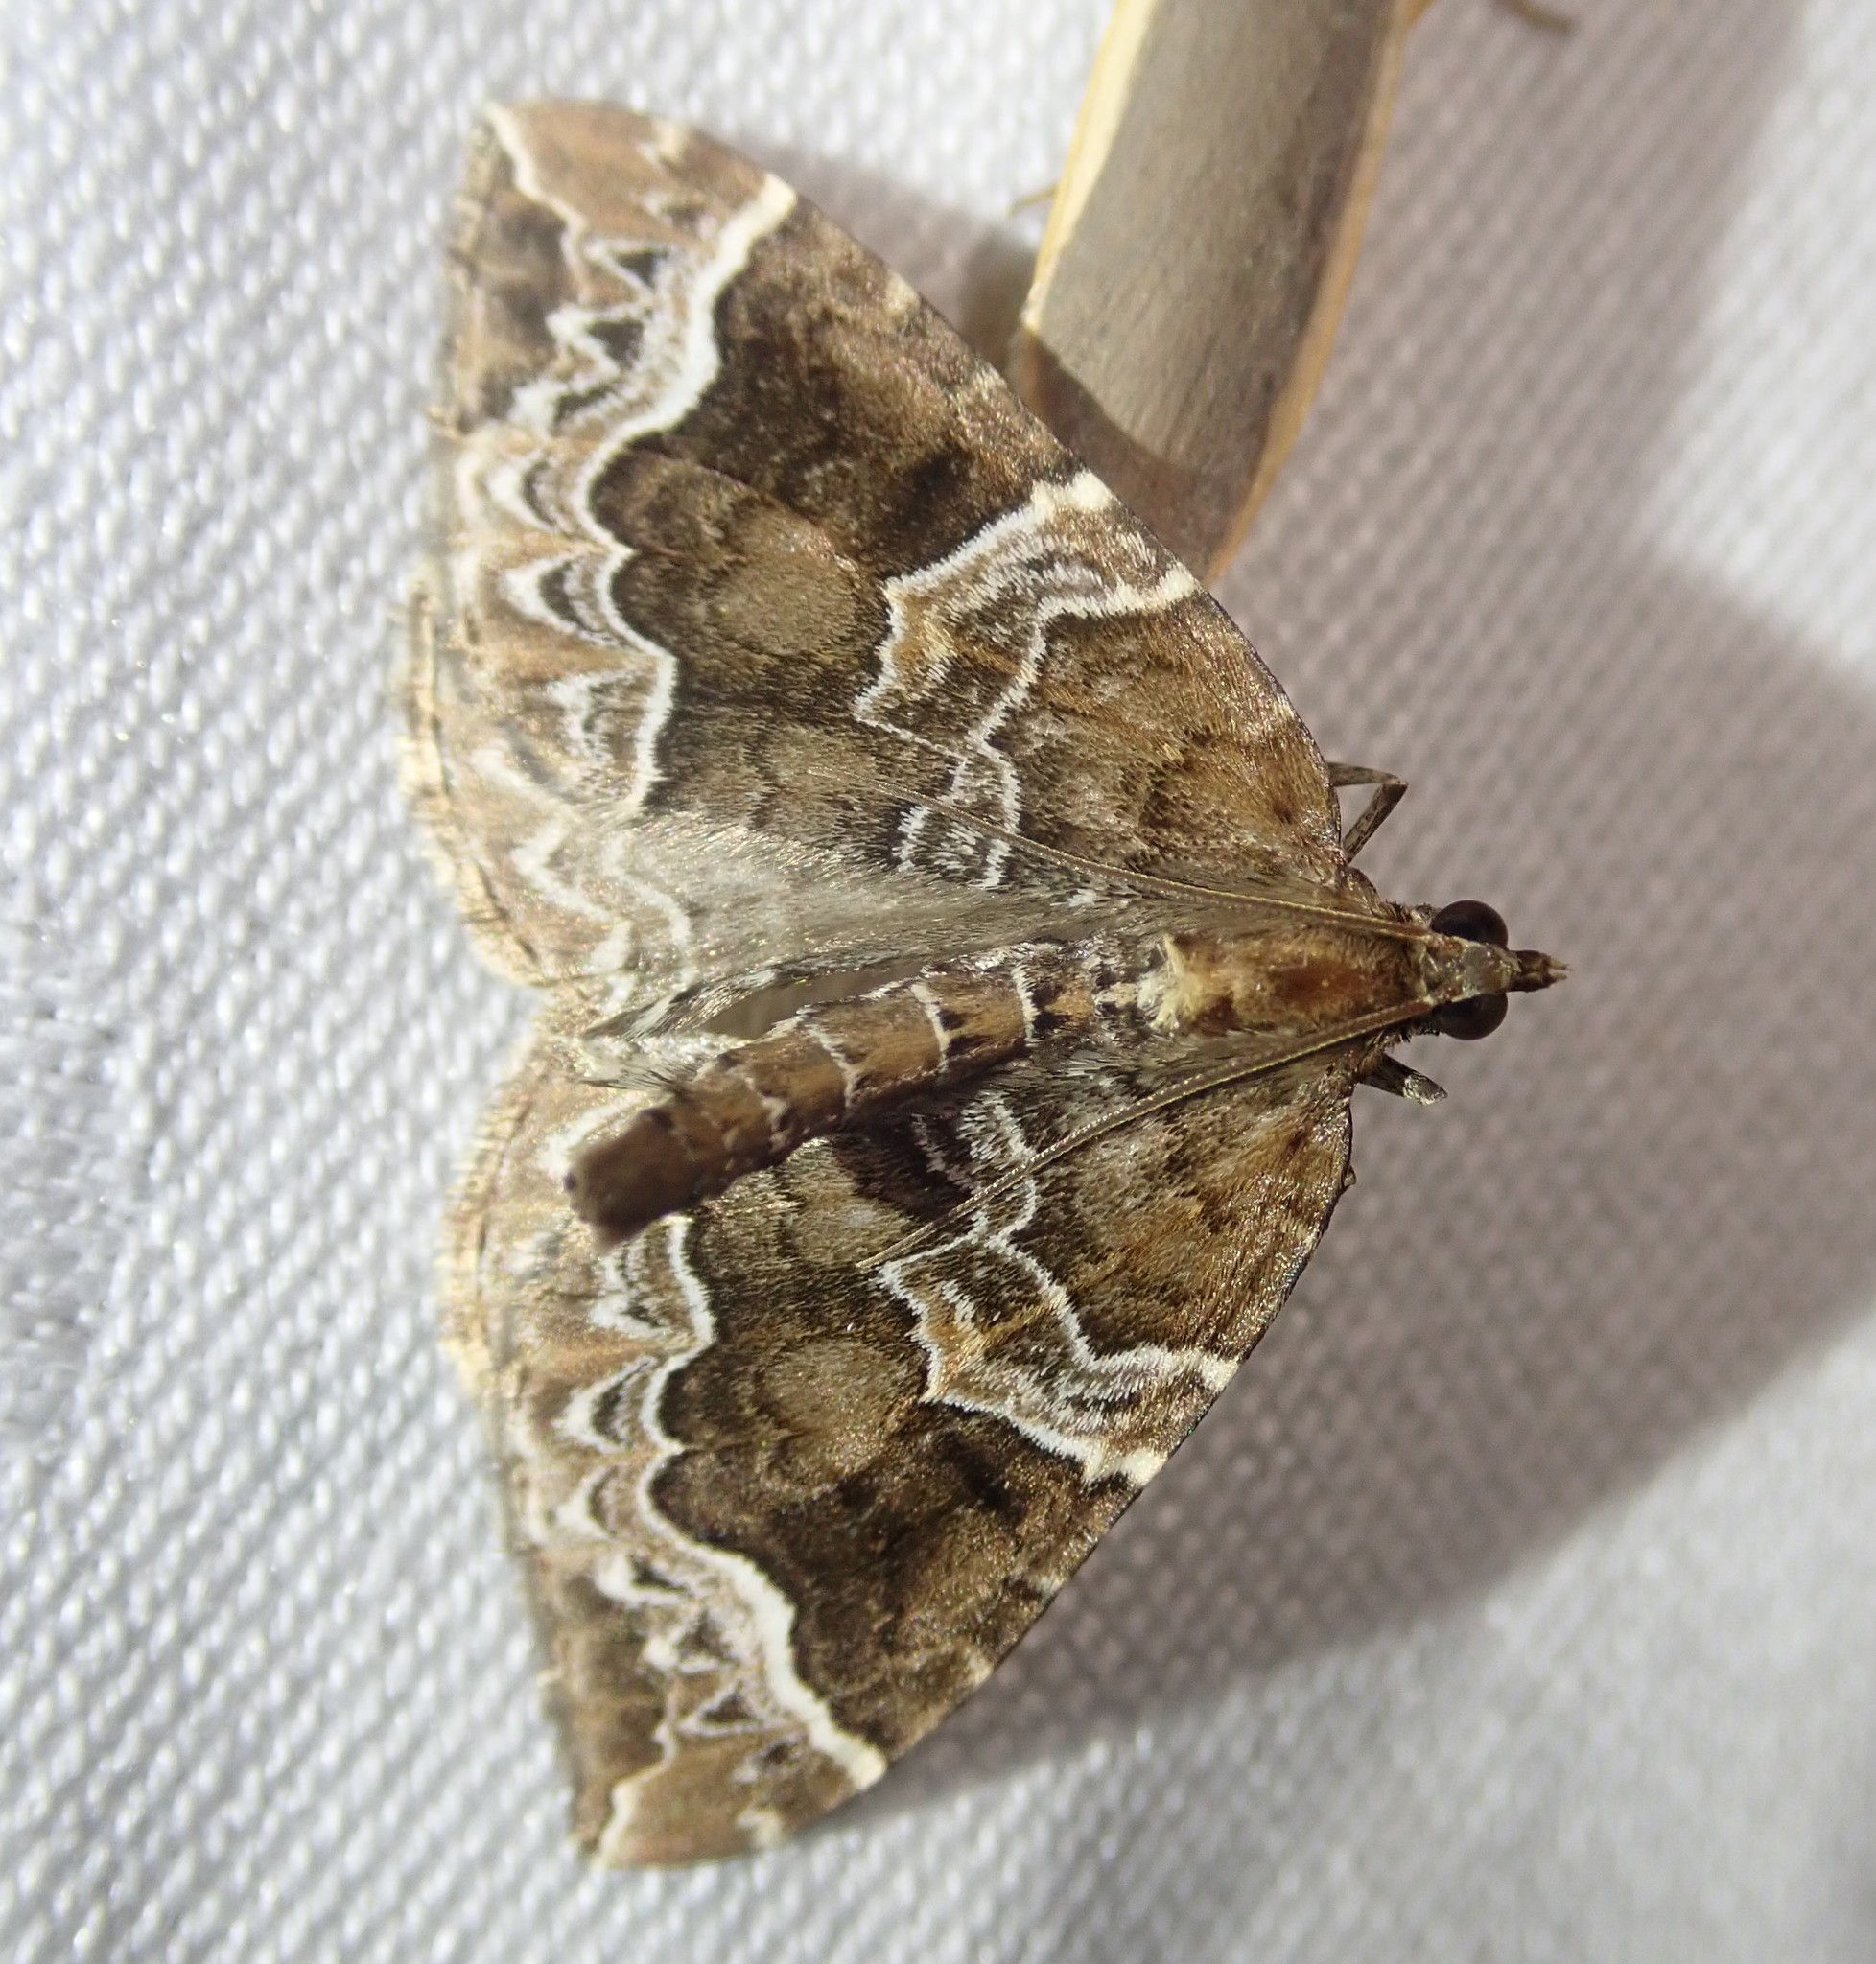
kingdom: Animalia
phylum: Arthropoda
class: Insecta
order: Lepidoptera
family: Geometridae
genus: Eulithis
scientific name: Eulithis prunata
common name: Phoenix
